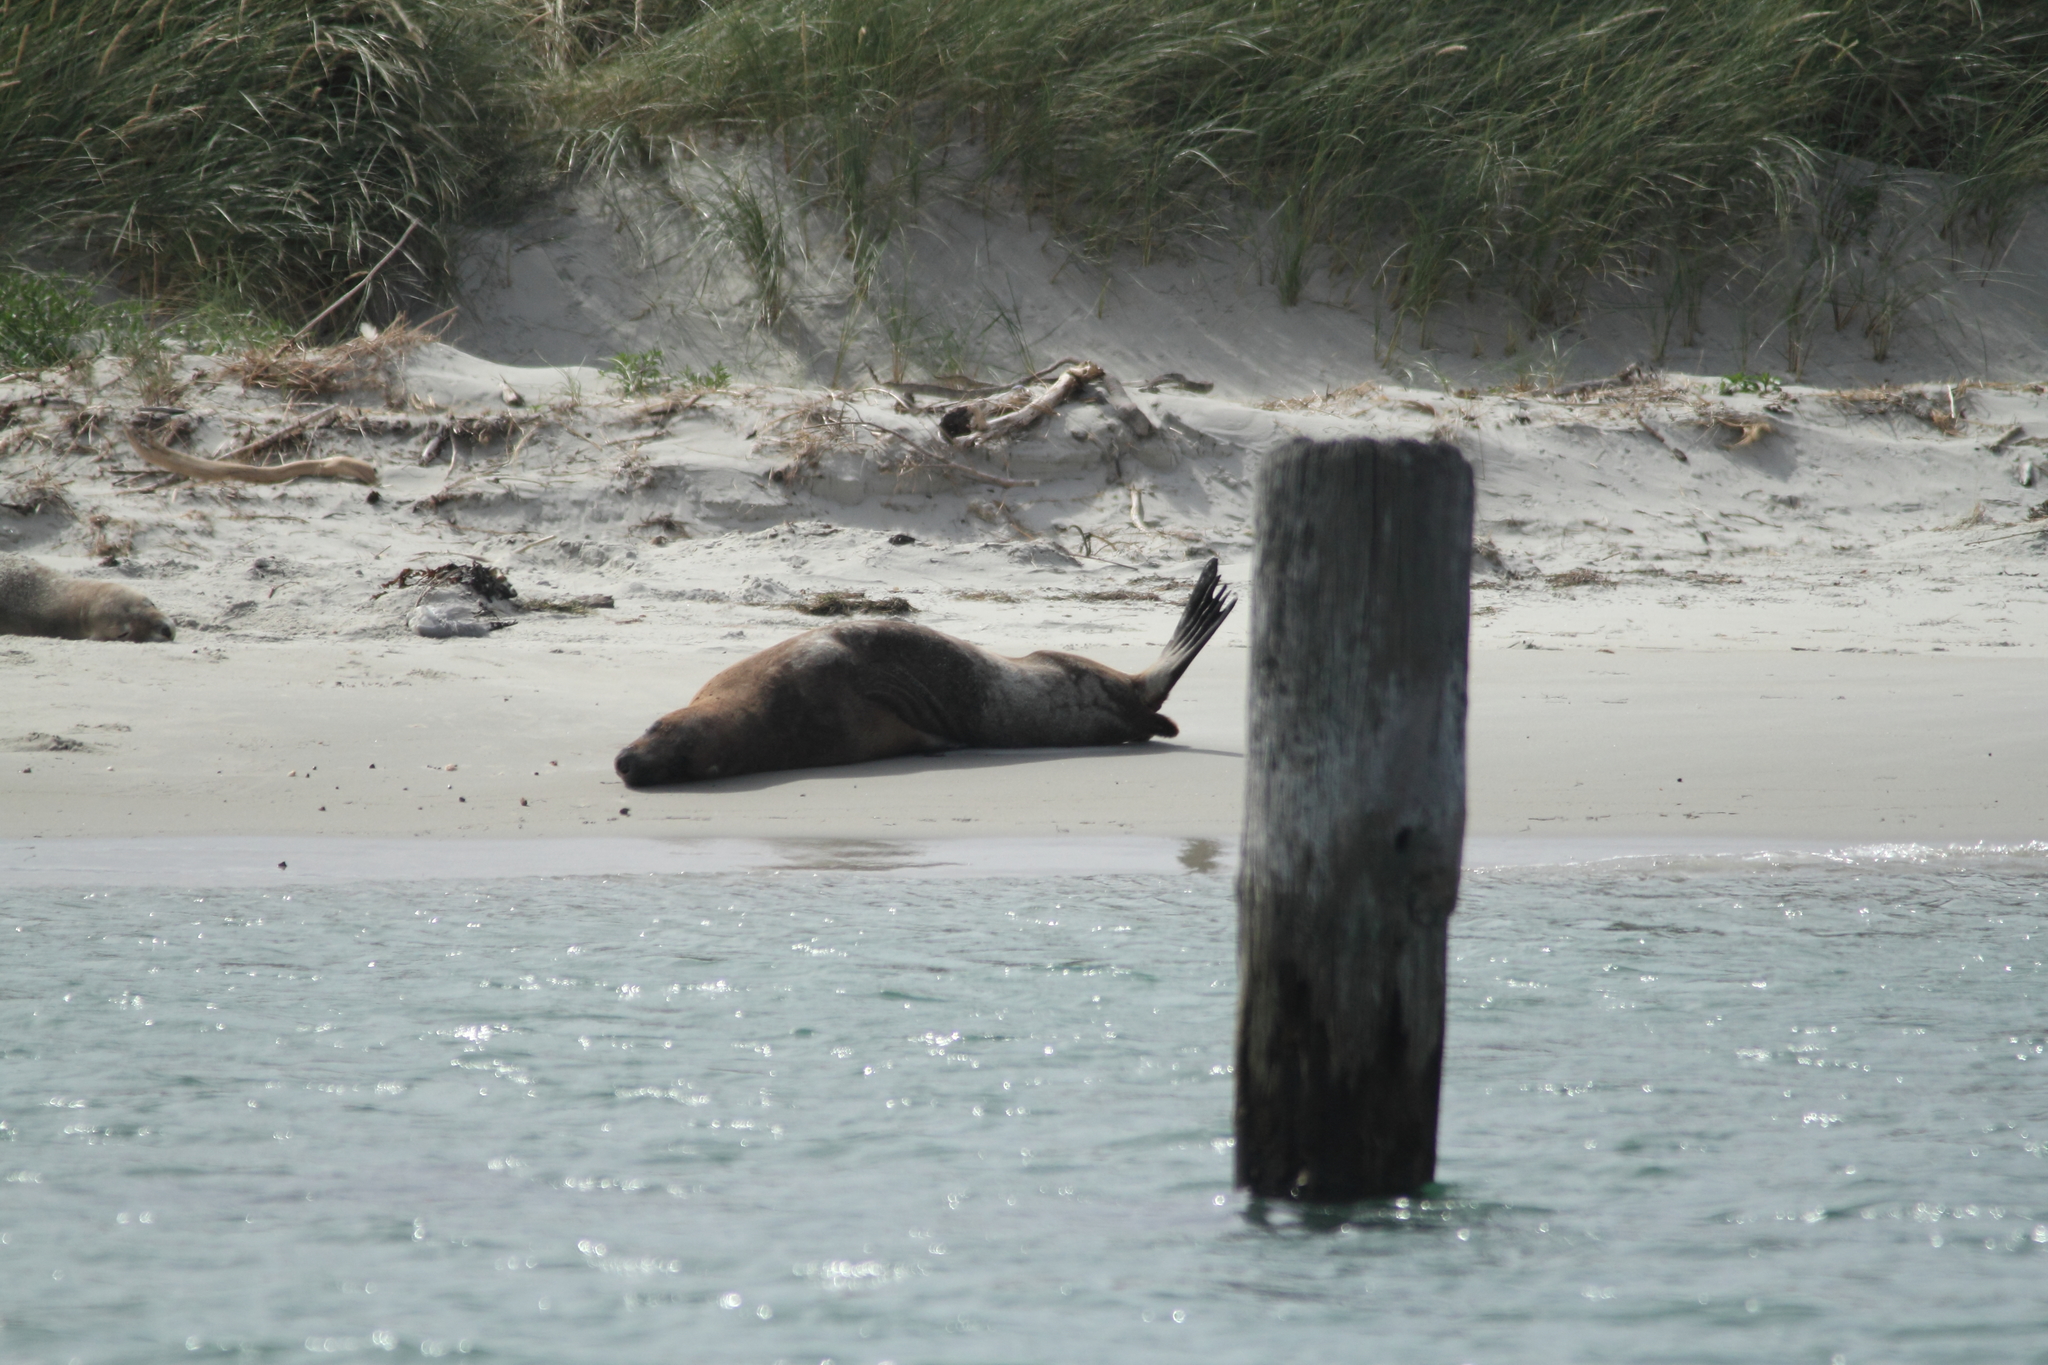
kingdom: Animalia
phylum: Chordata
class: Mammalia
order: Carnivora
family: Otariidae
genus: Phocarctos
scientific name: Phocarctos hookeri
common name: New zealand sea lion
